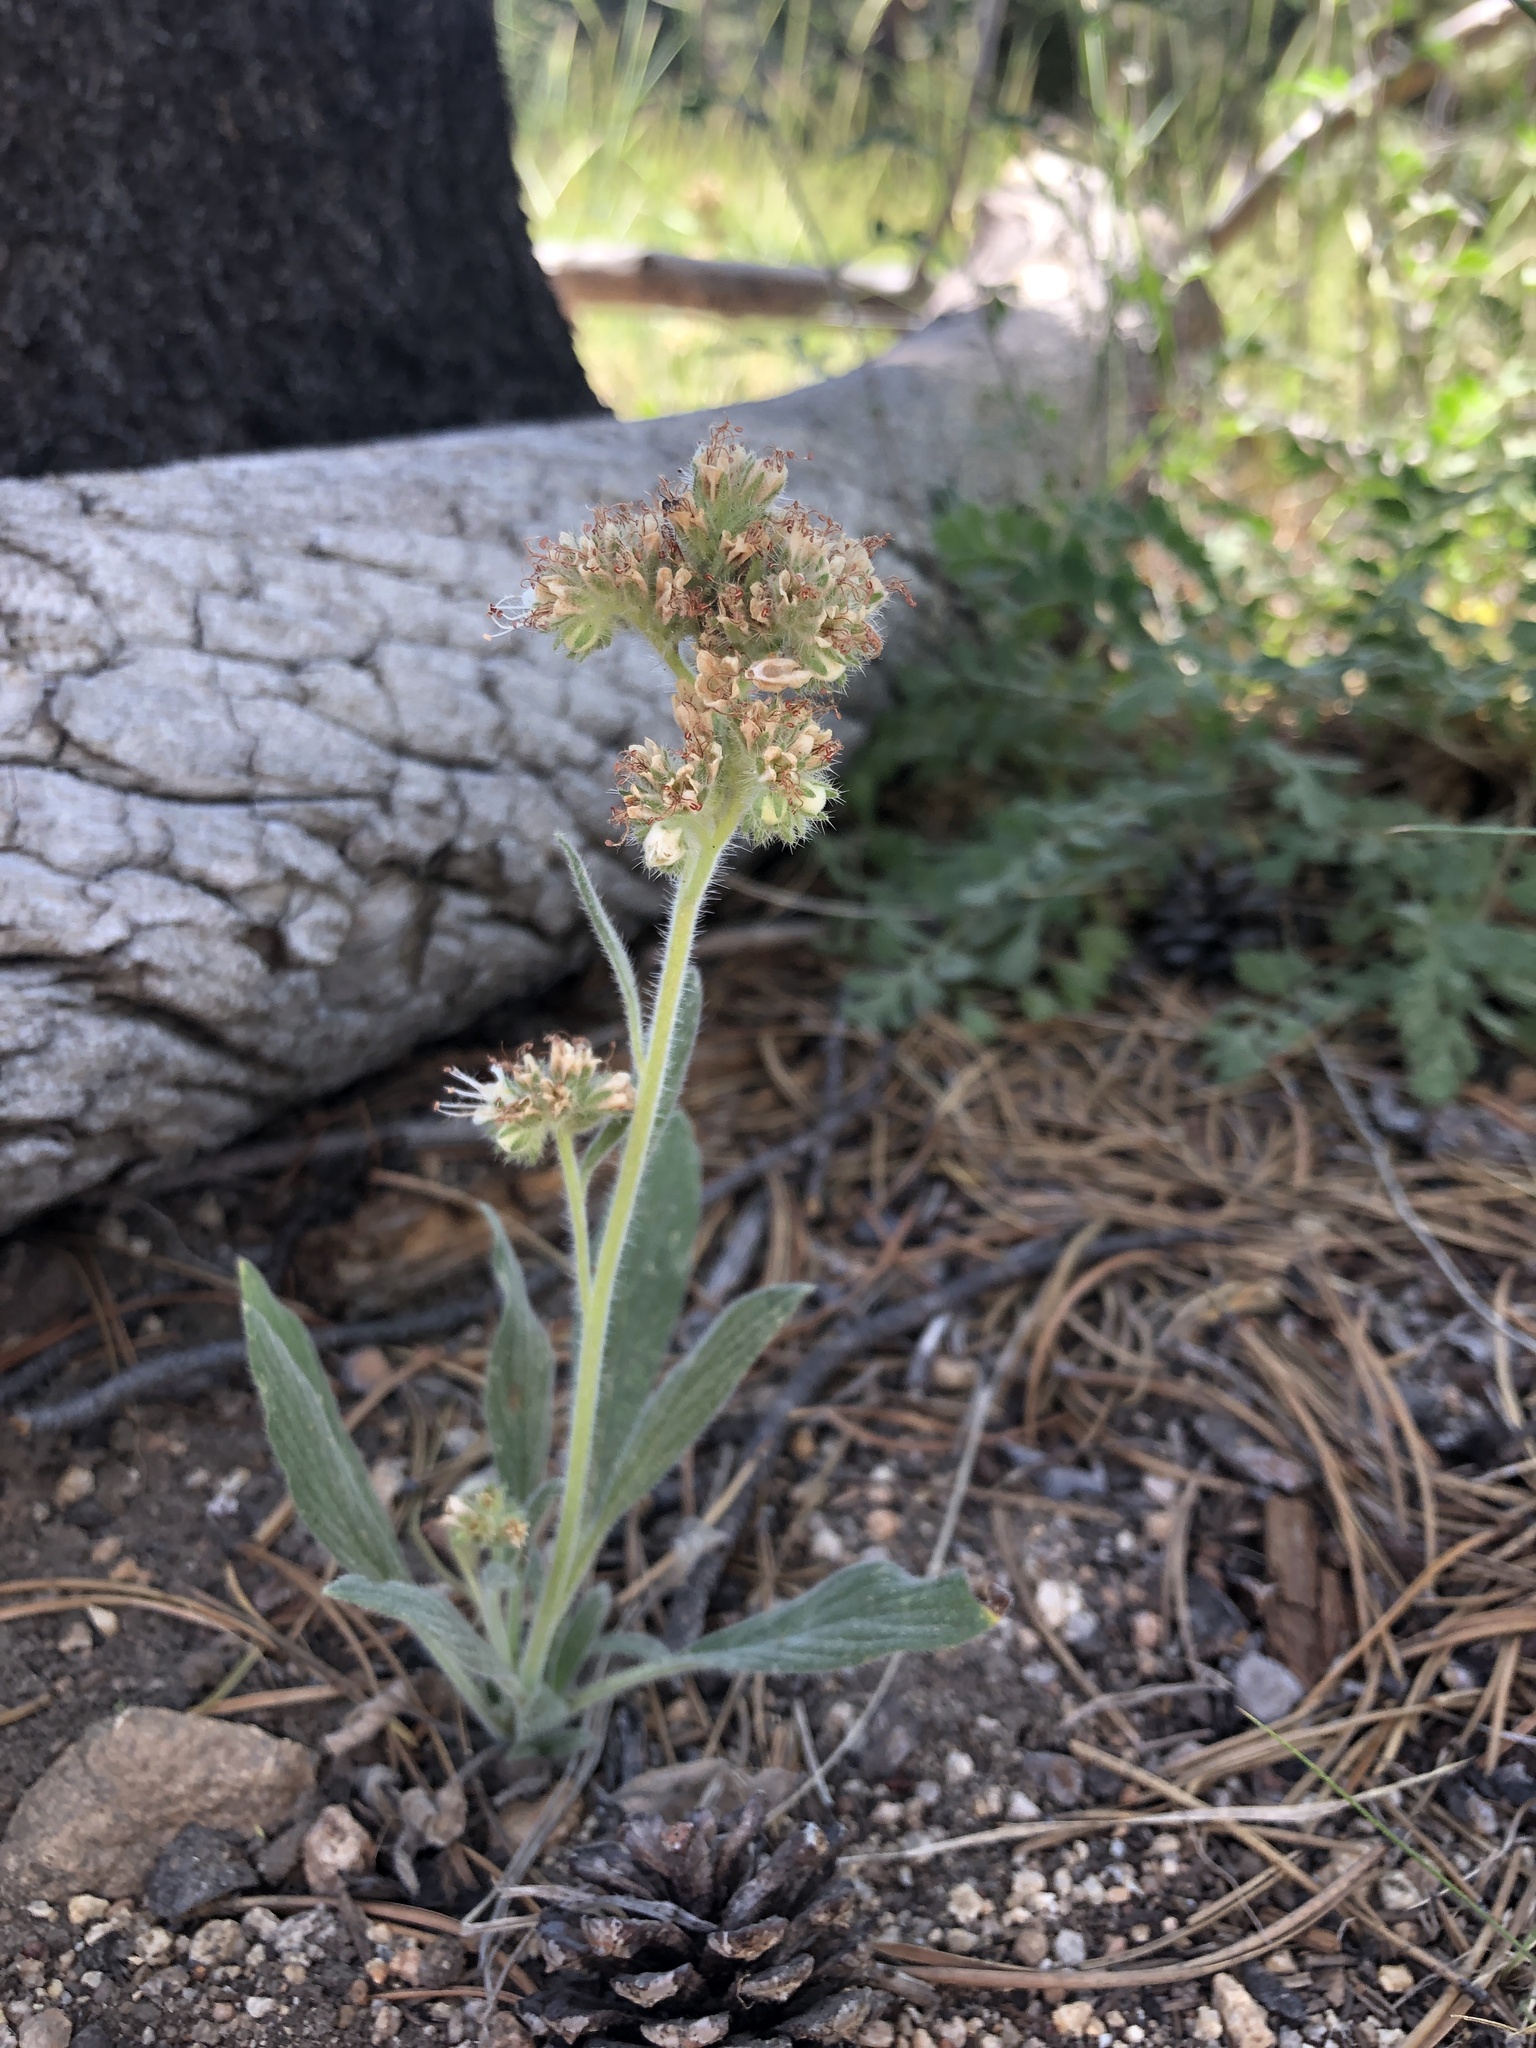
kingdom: Plantae
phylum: Tracheophyta
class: Magnoliopsida
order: Boraginales
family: Hydrophyllaceae
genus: Phacelia
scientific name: Phacelia hastata
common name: Silver-leaved phacelia
